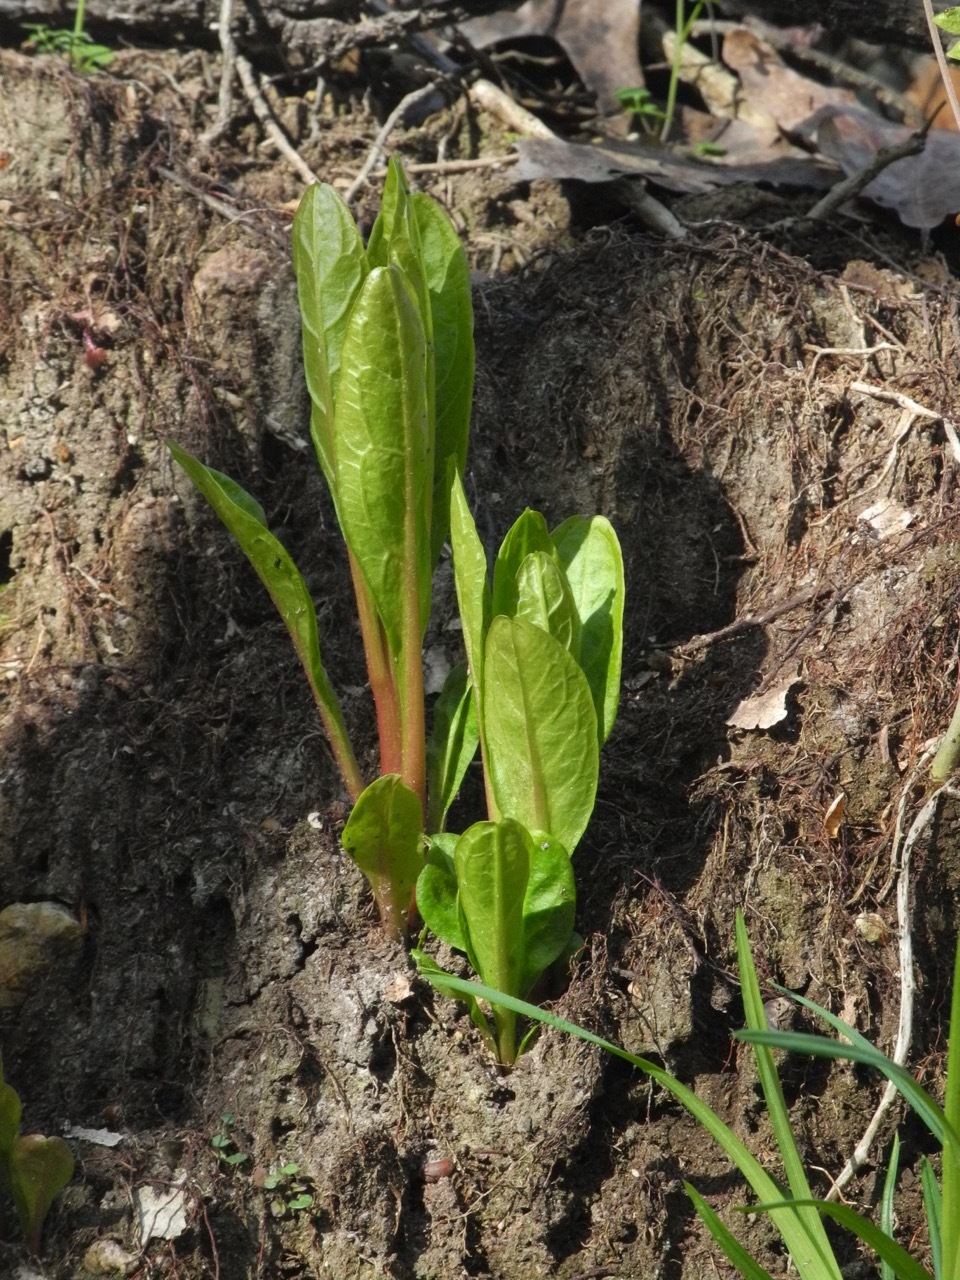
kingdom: Plantae
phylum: Tracheophyta
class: Magnoliopsida
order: Caryophyllales
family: Phytolaccaceae
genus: Phytolacca
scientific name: Phytolacca americana
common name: American pokeweed
